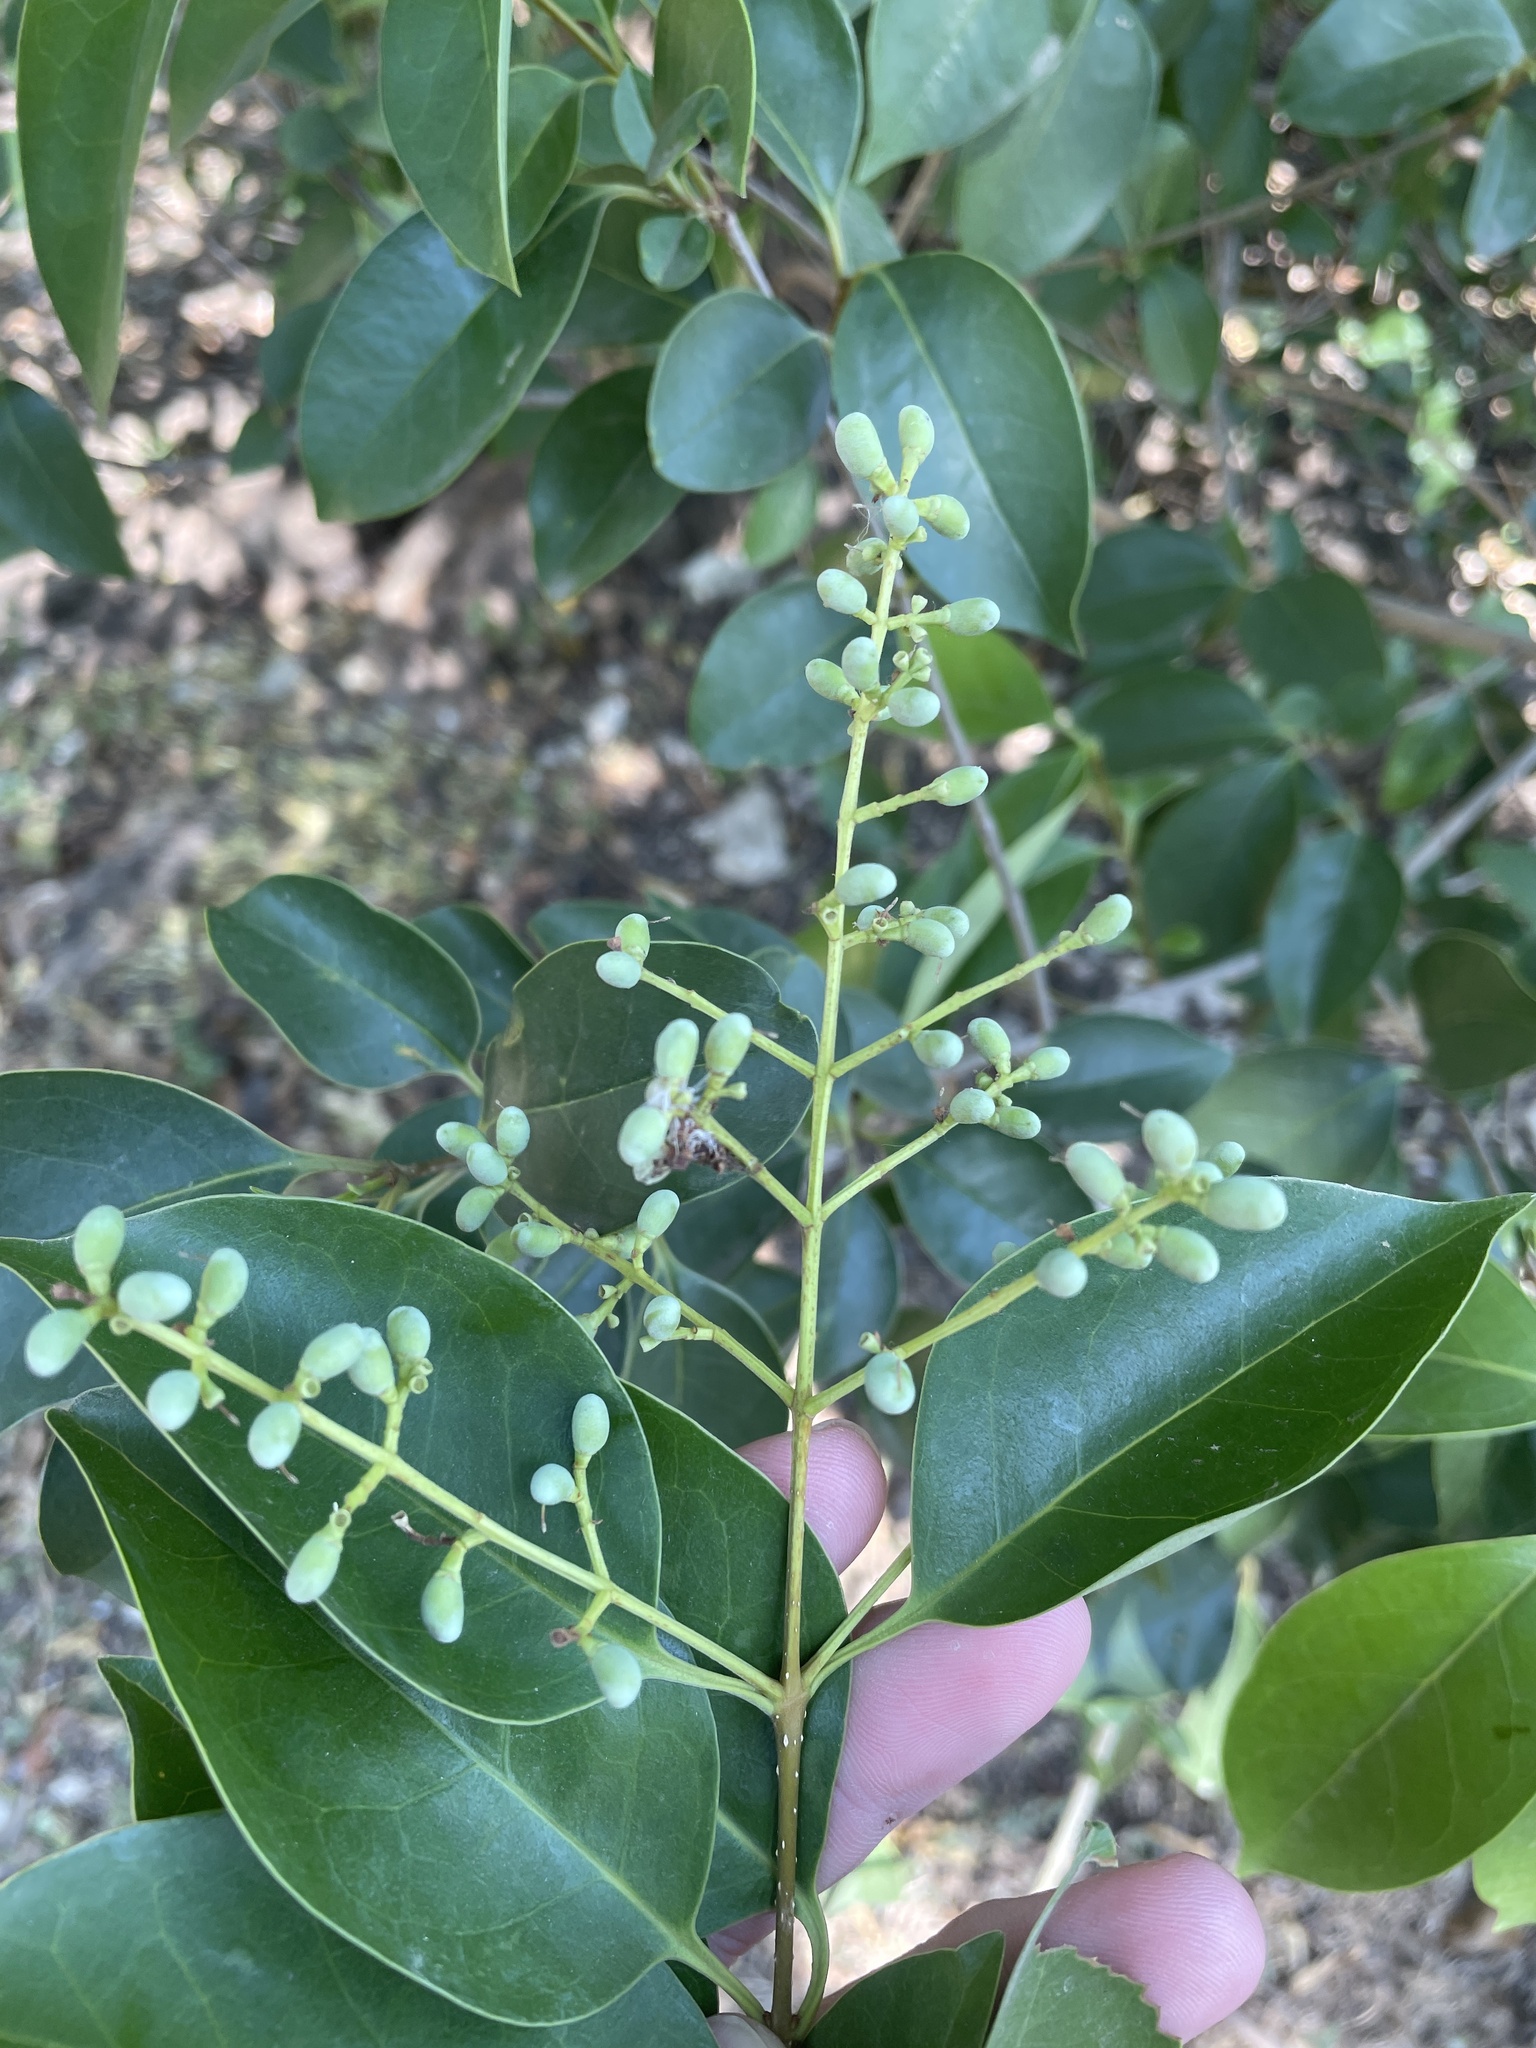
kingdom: Plantae
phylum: Tracheophyta
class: Magnoliopsida
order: Lamiales
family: Oleaceae
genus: Ligustrum
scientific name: Ligustrum lucidum
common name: Glossy privet
